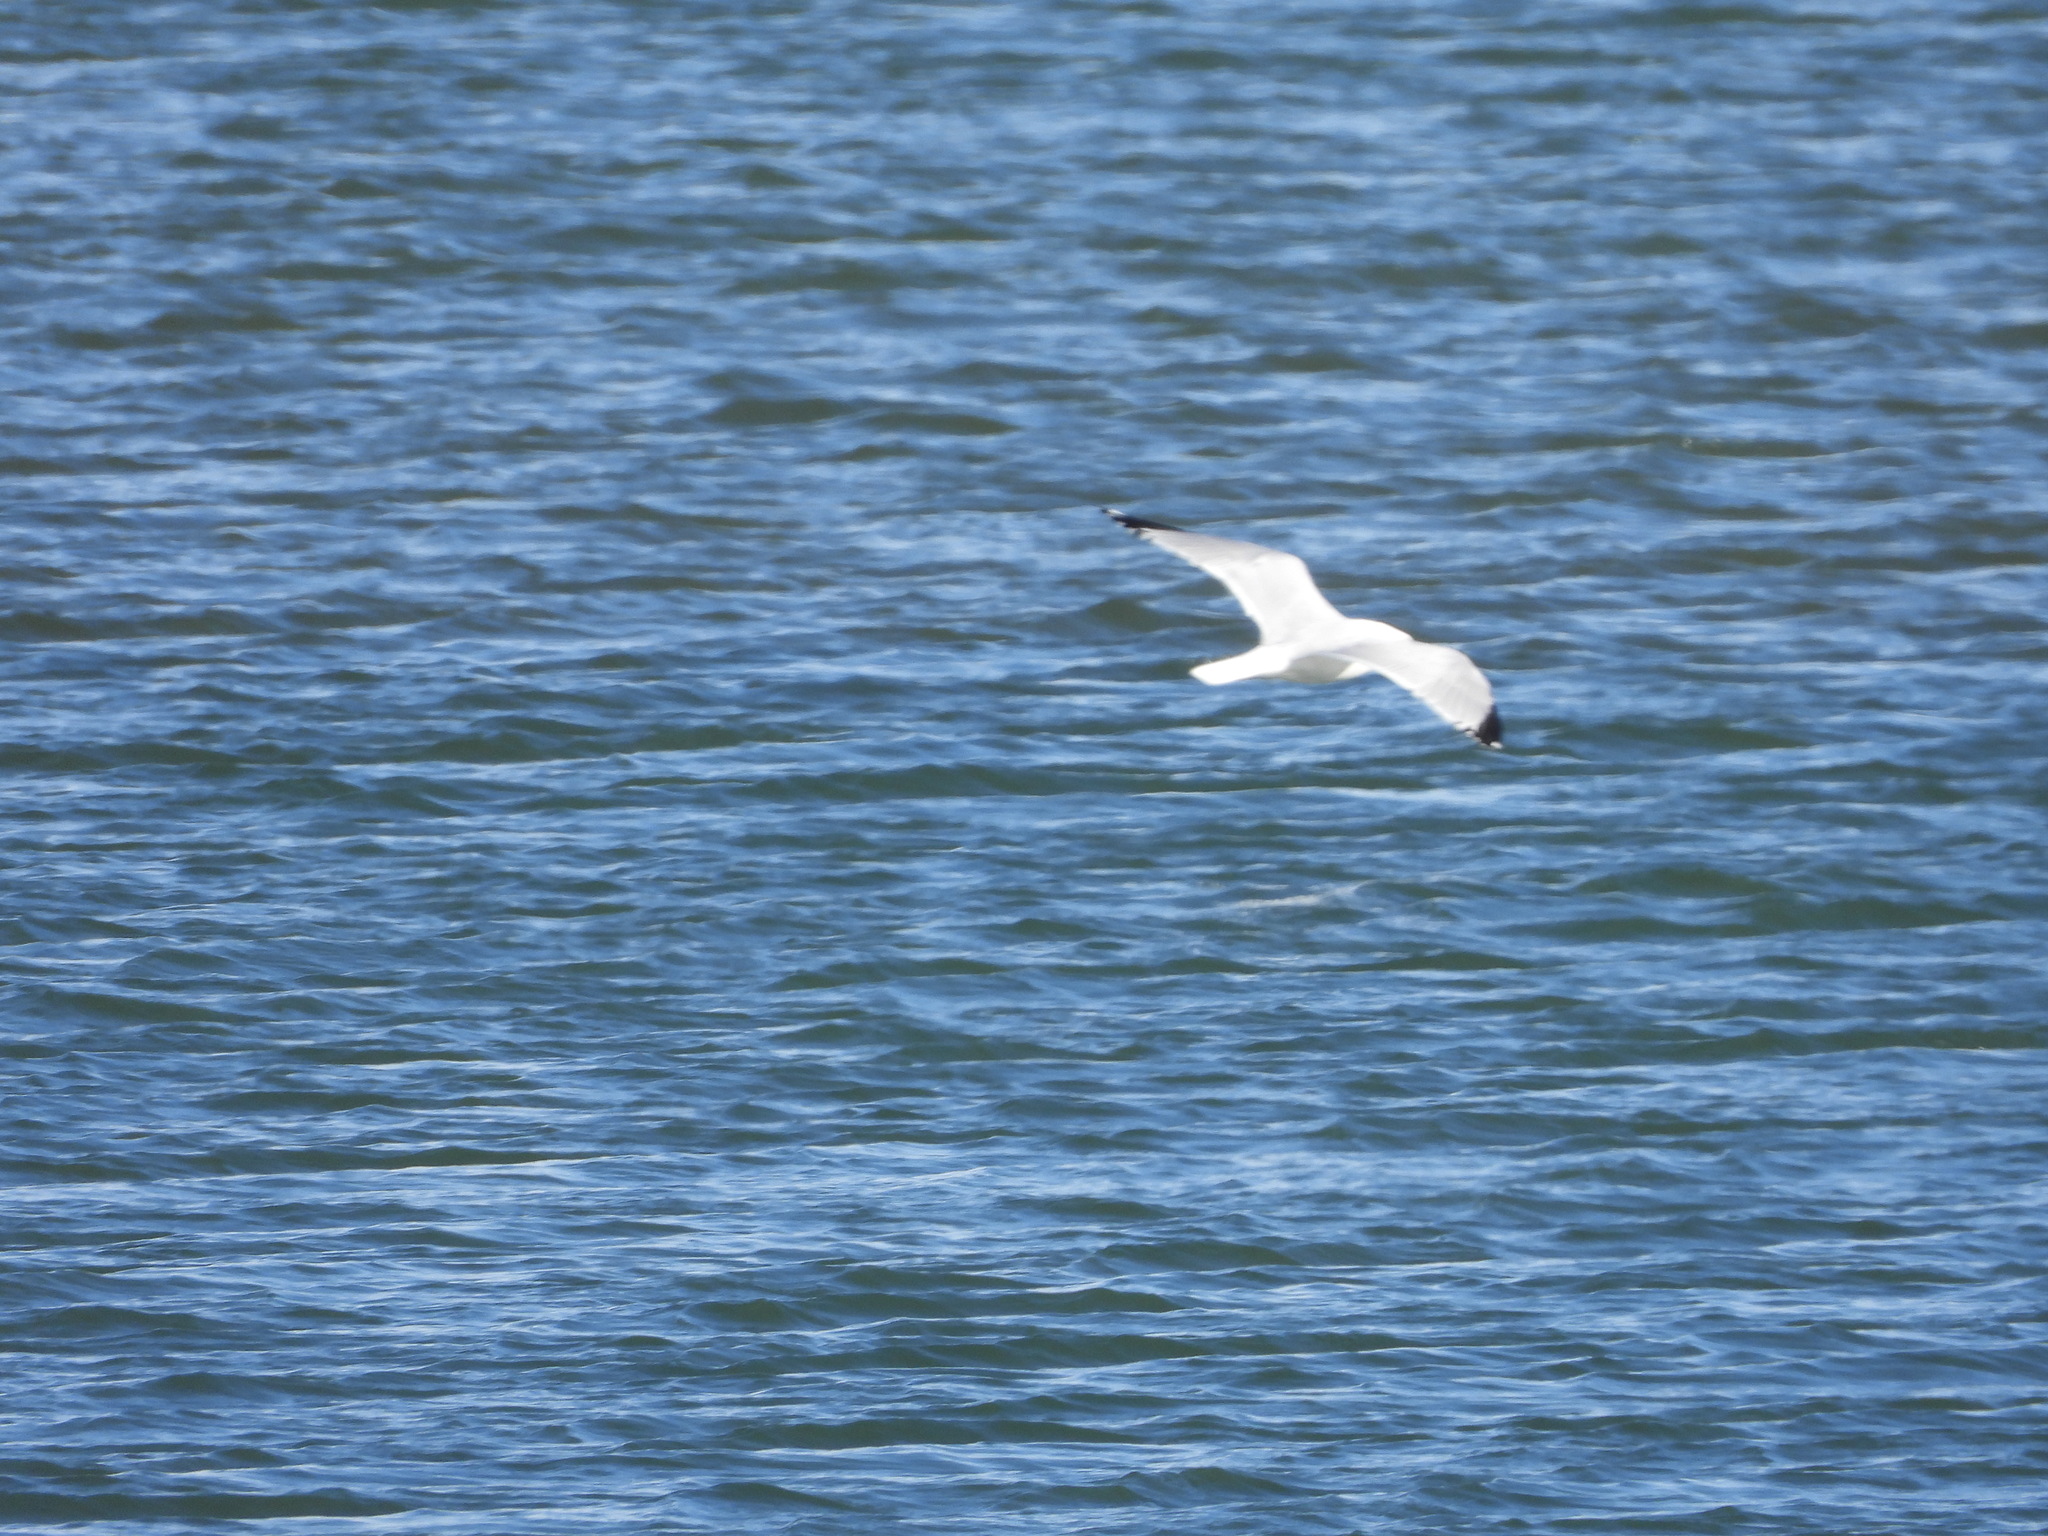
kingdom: Animalia
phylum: Chordata
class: Aves
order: Charadriiformes
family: Laridae
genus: Larus
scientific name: Larus delawarensis
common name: Ring-billed gull
